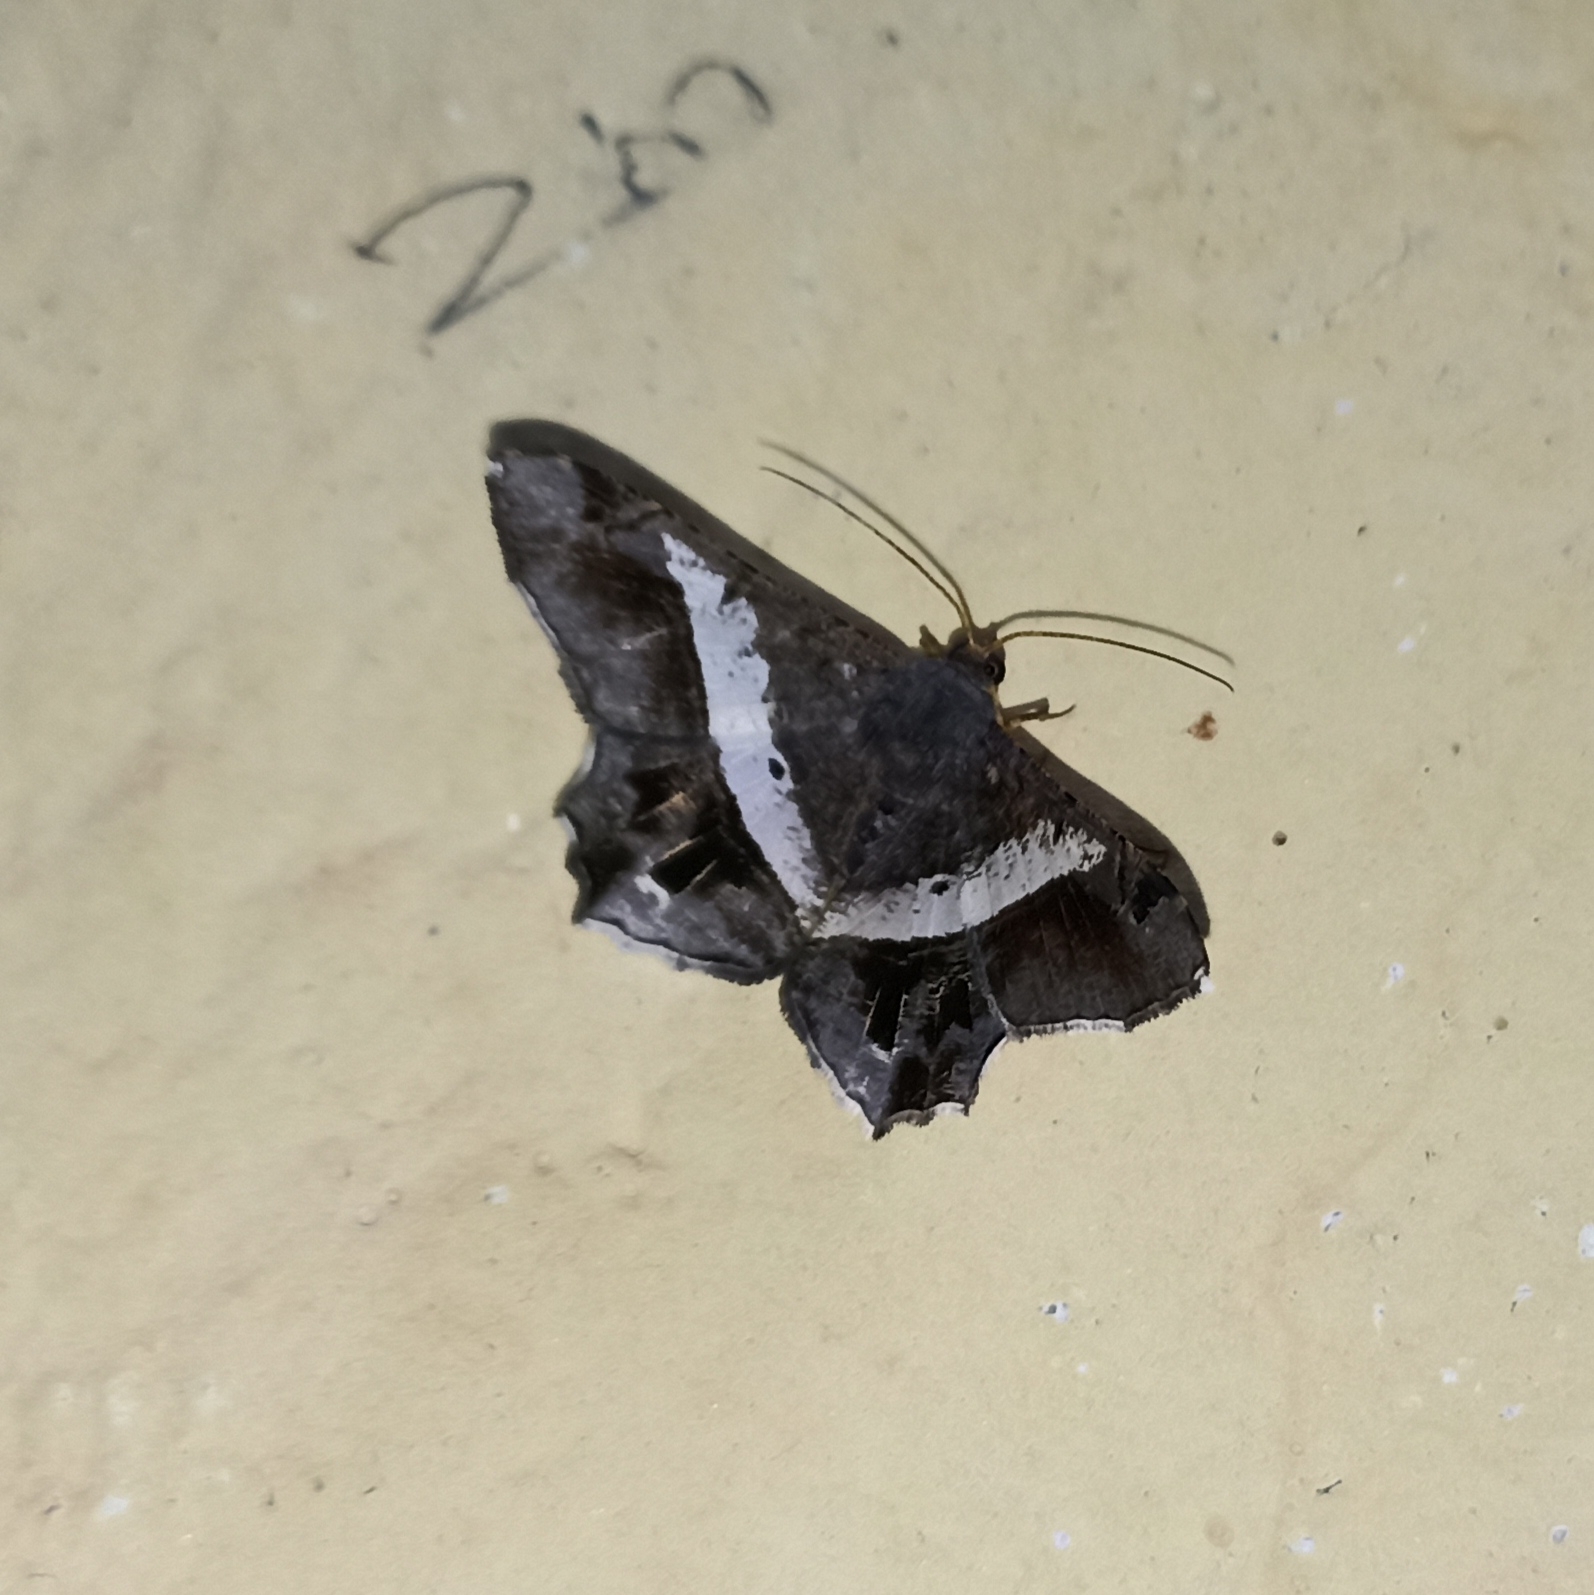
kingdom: Animalia
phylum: Arthropoda
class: Insecta
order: Lepidoptera
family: Geometridae
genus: Chiasmia
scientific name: Chiasmia nora
